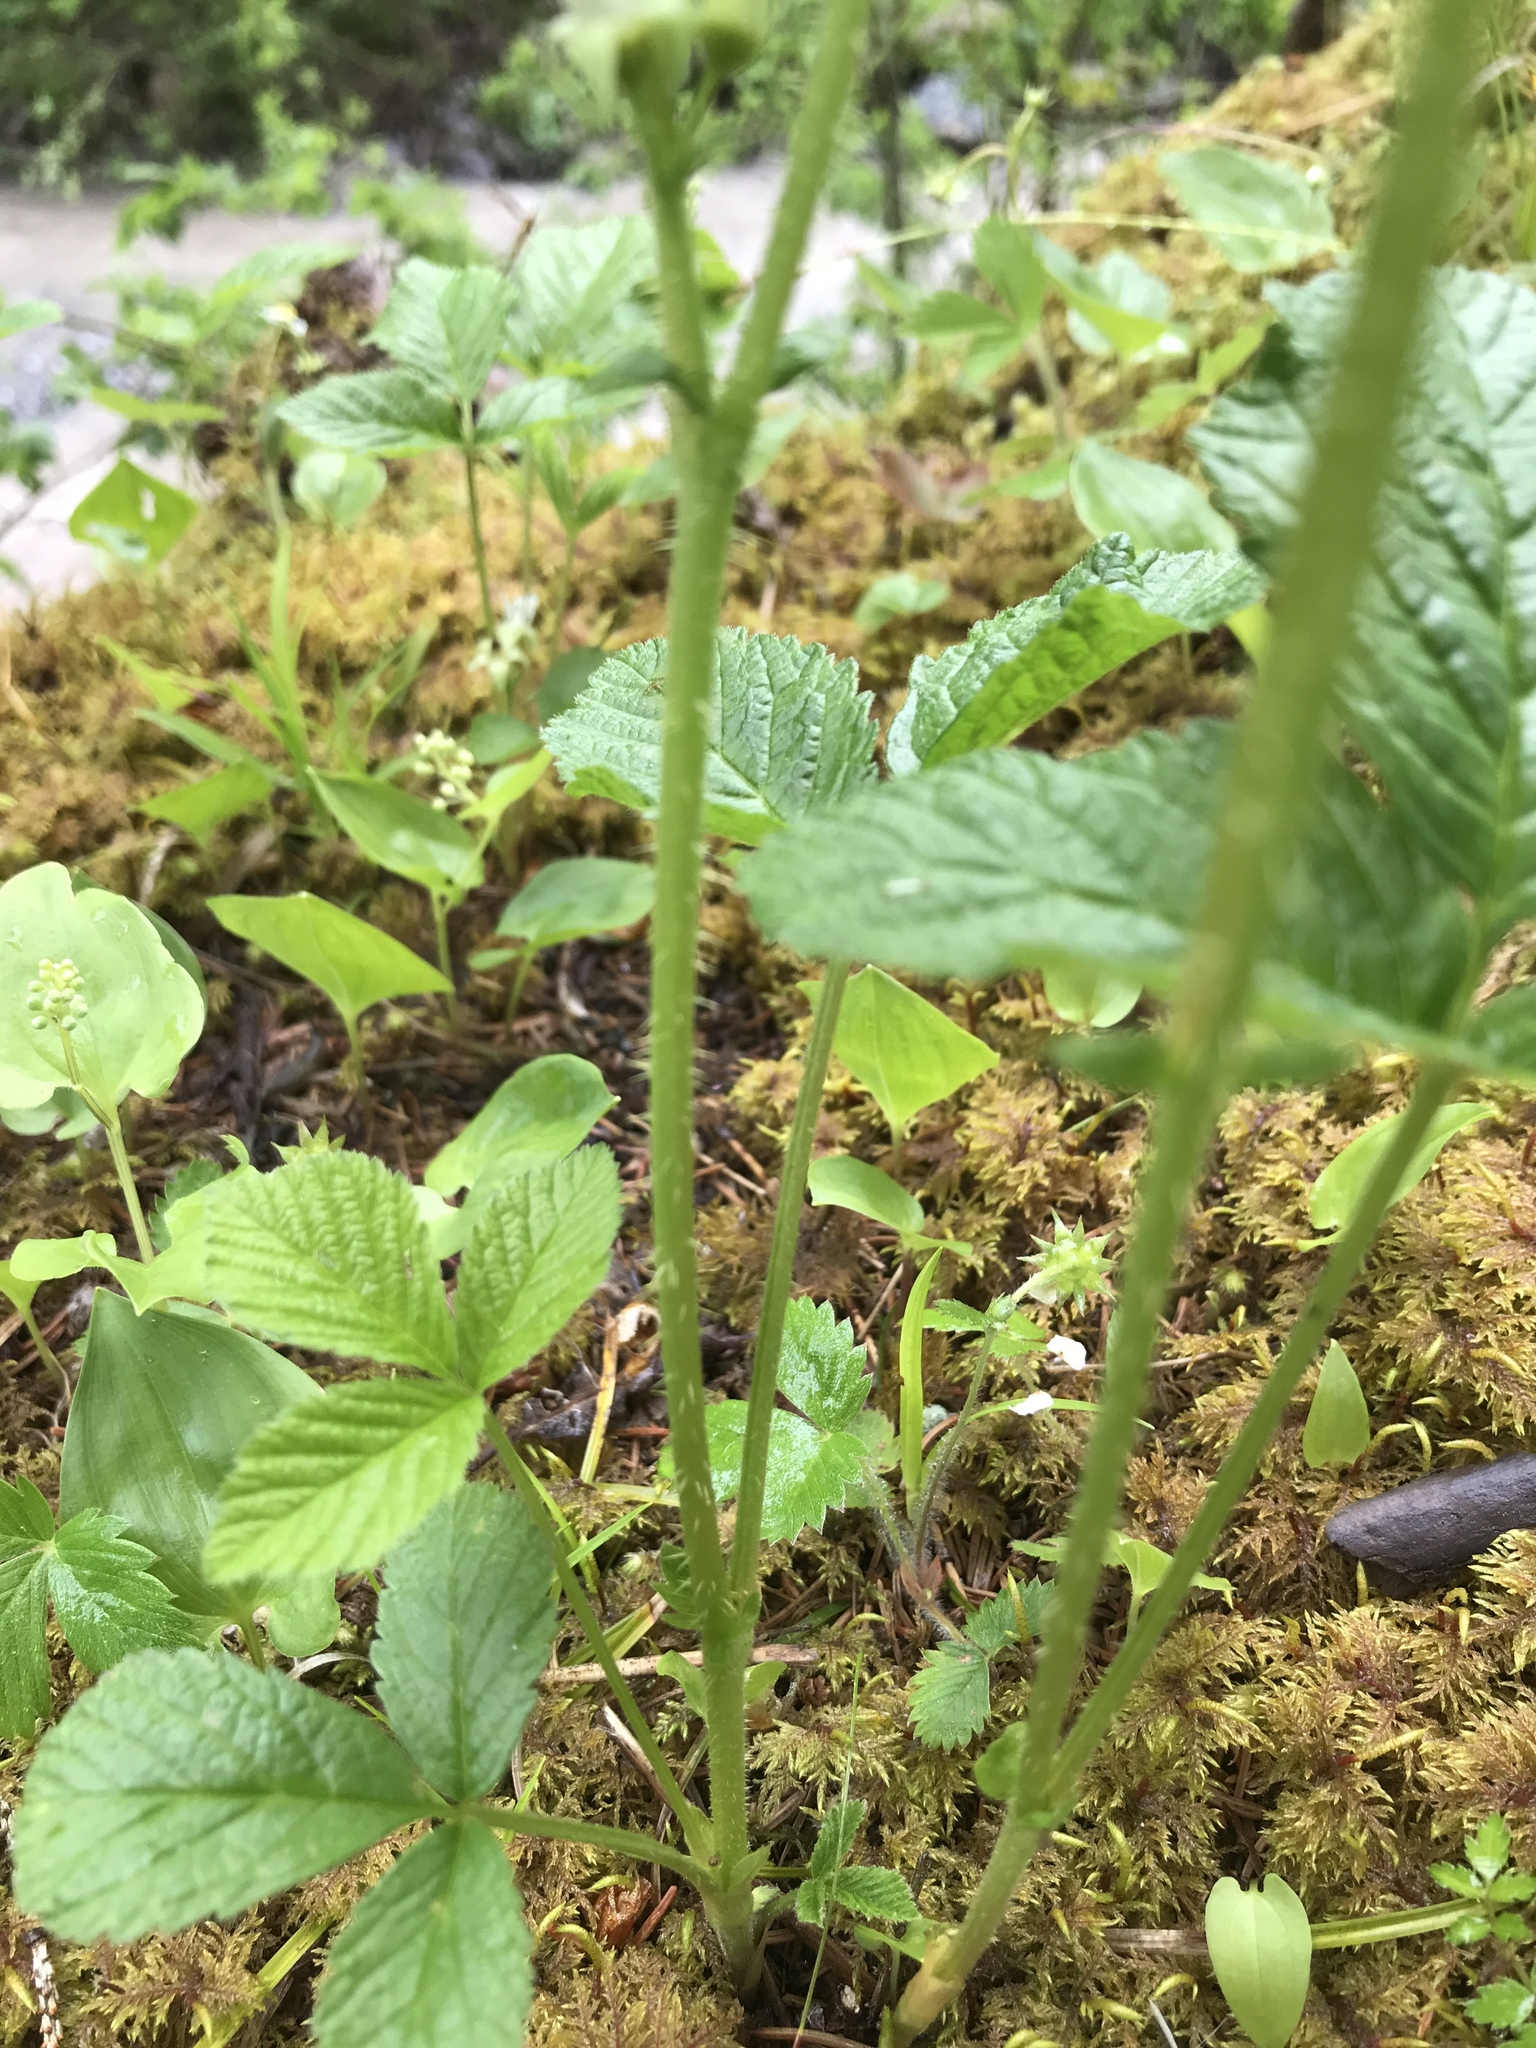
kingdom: Plantae
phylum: Tracheophyta
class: Magnoliopsida
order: Rosales
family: Rosaceae
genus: Rubus
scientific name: Rubus saxatilis
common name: Stone bramble
